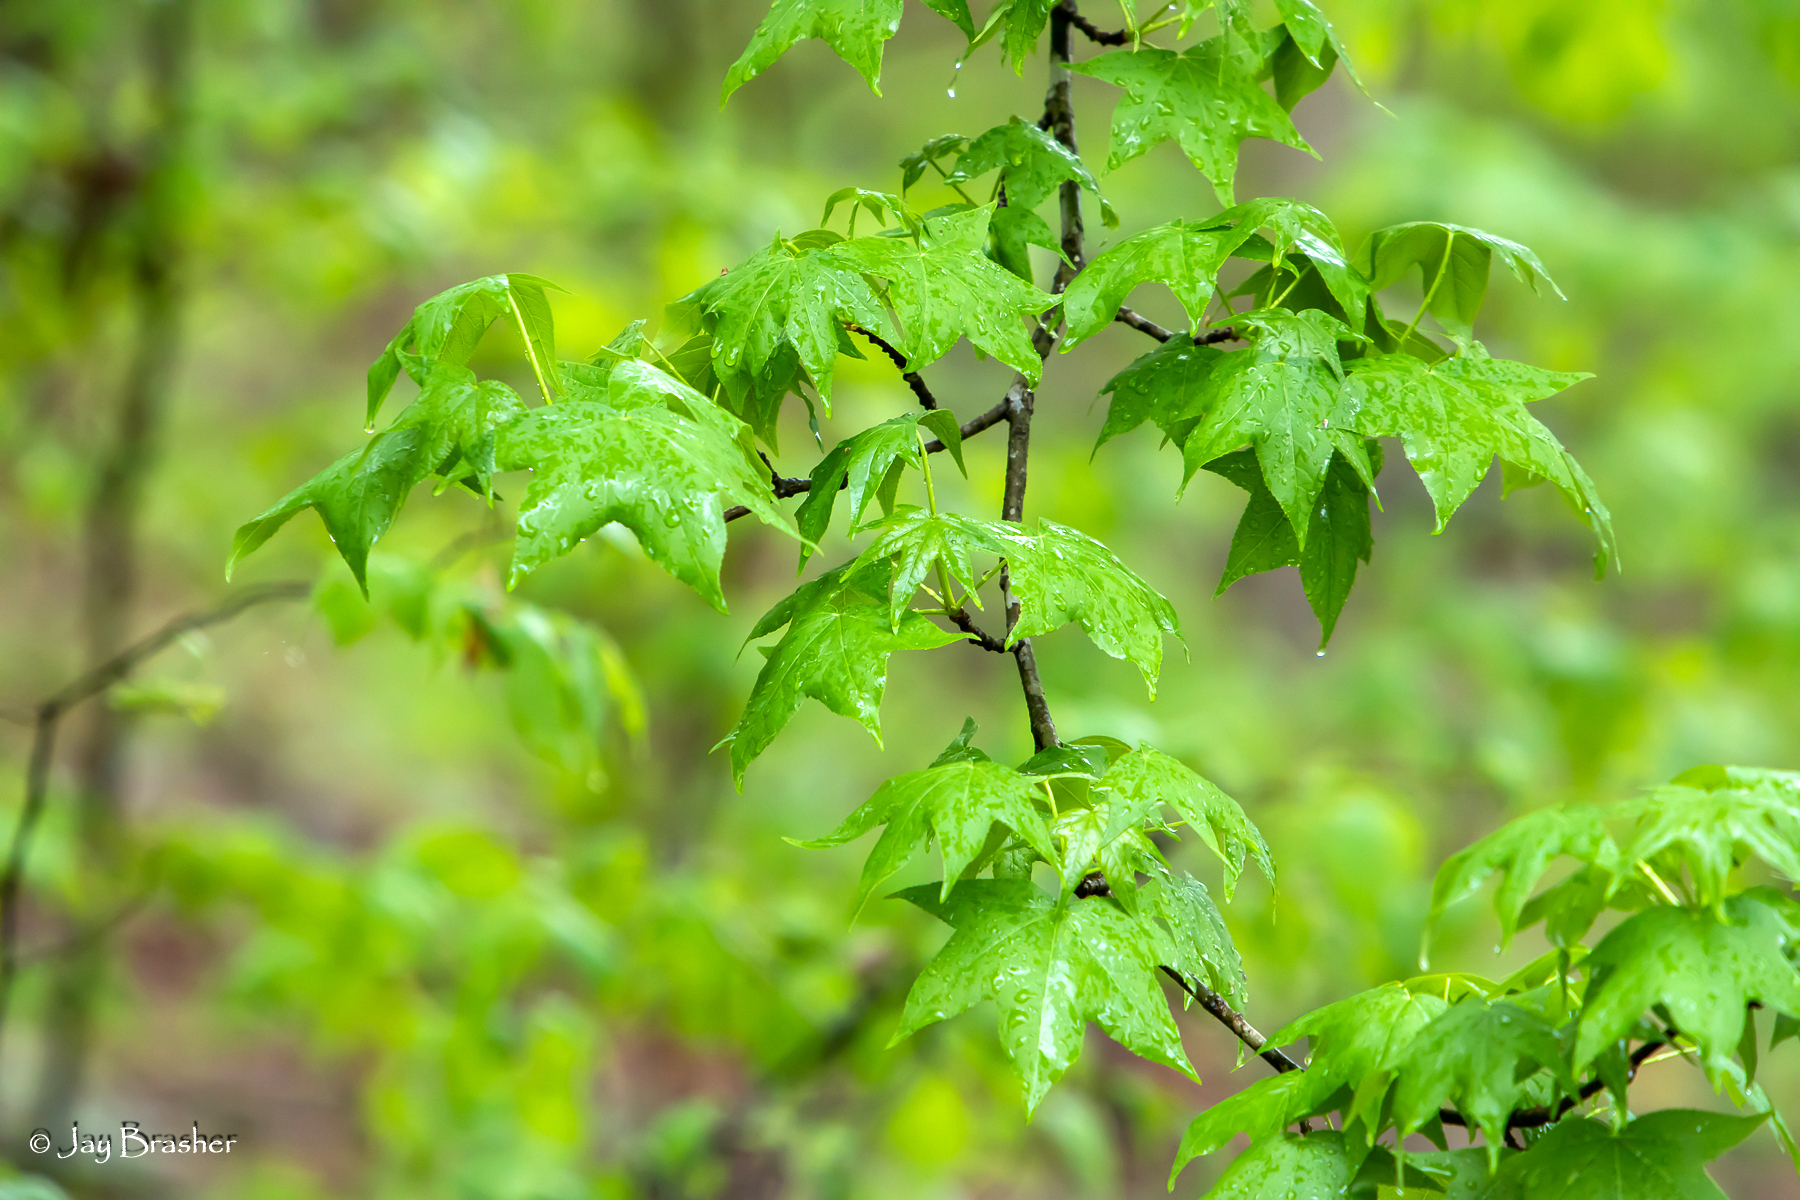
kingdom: Plantae
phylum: Tracheophyta
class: Magnoliopsida
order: Saxifragales
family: Altingiaceae
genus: Liquidambar
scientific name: Liquidambar styraciflua
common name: Sweet gum
